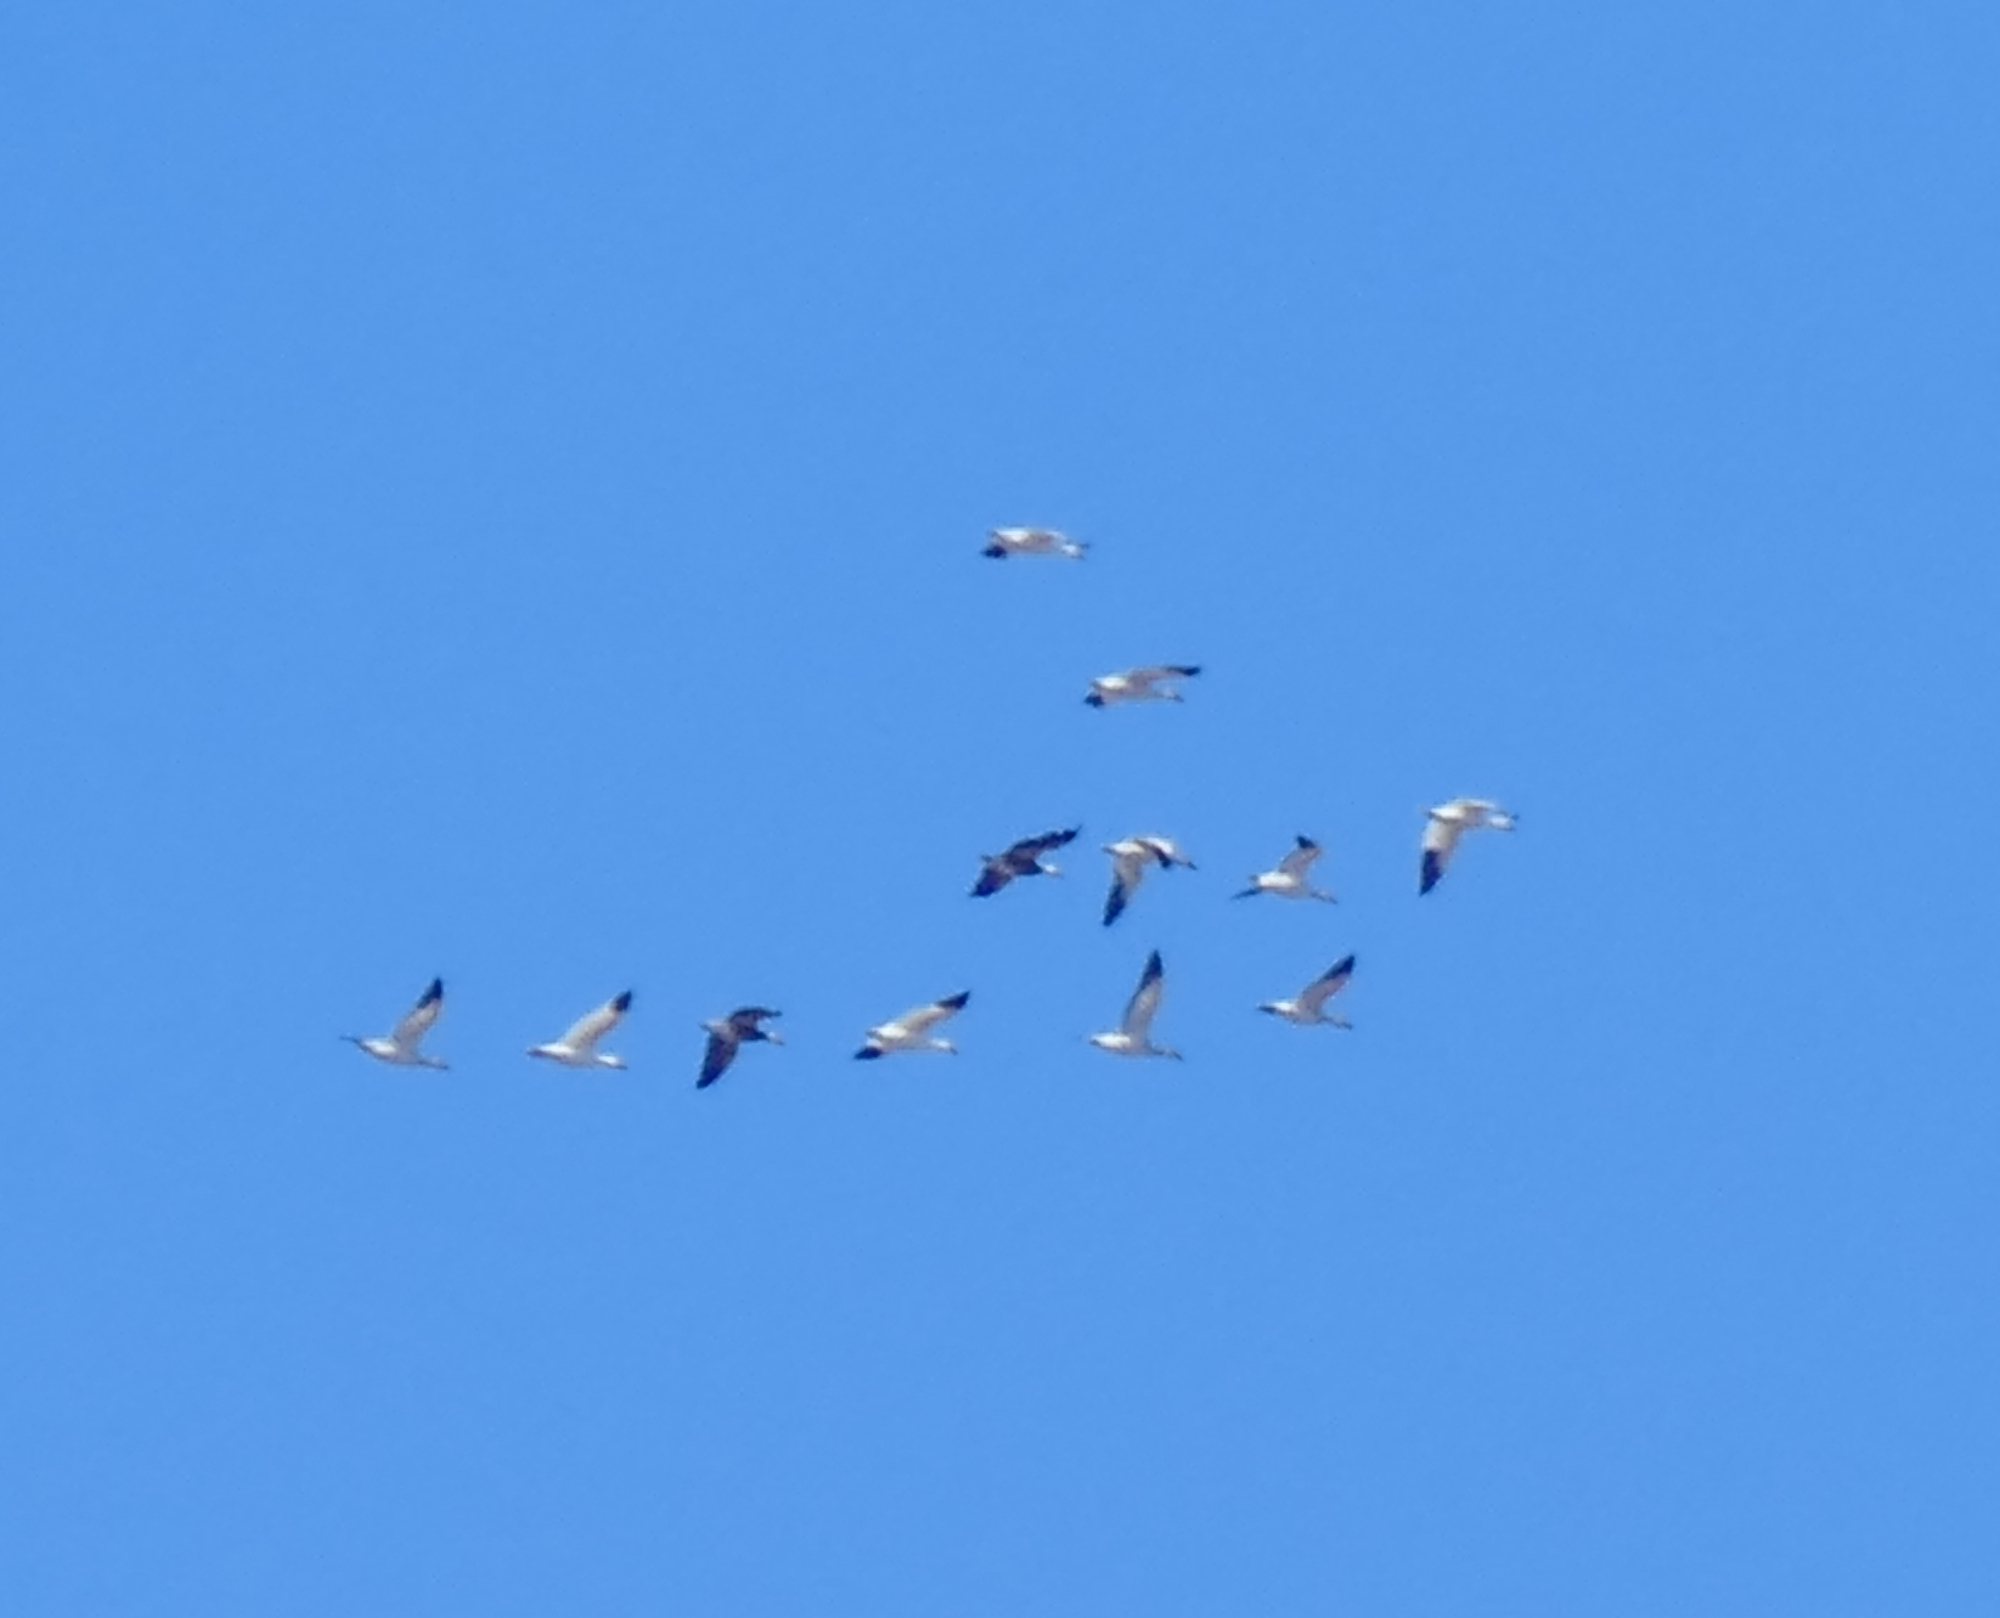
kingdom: Animalia
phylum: Chordata
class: Aves
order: Anseriformes
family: Anatidae
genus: Anser
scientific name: Anser caerulescens
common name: Snow goose
